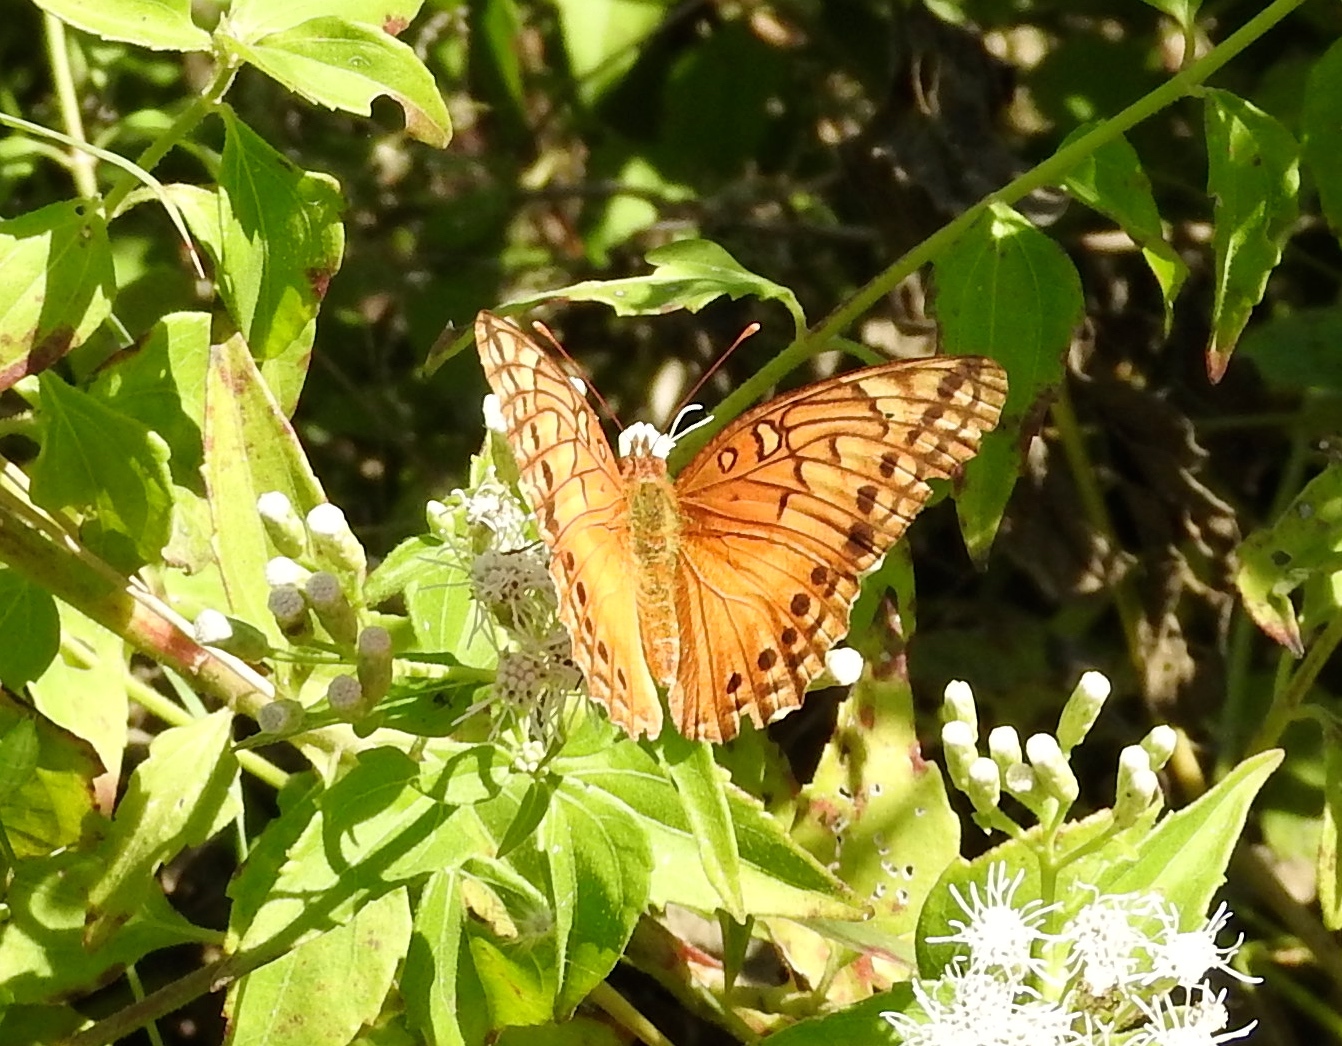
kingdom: Animalia
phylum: Arthropoda
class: Insecta
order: Lepidoptera
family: Nymphalidae
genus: Euptoieta
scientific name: Euptoieta hegesia
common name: Mexican fritillary
